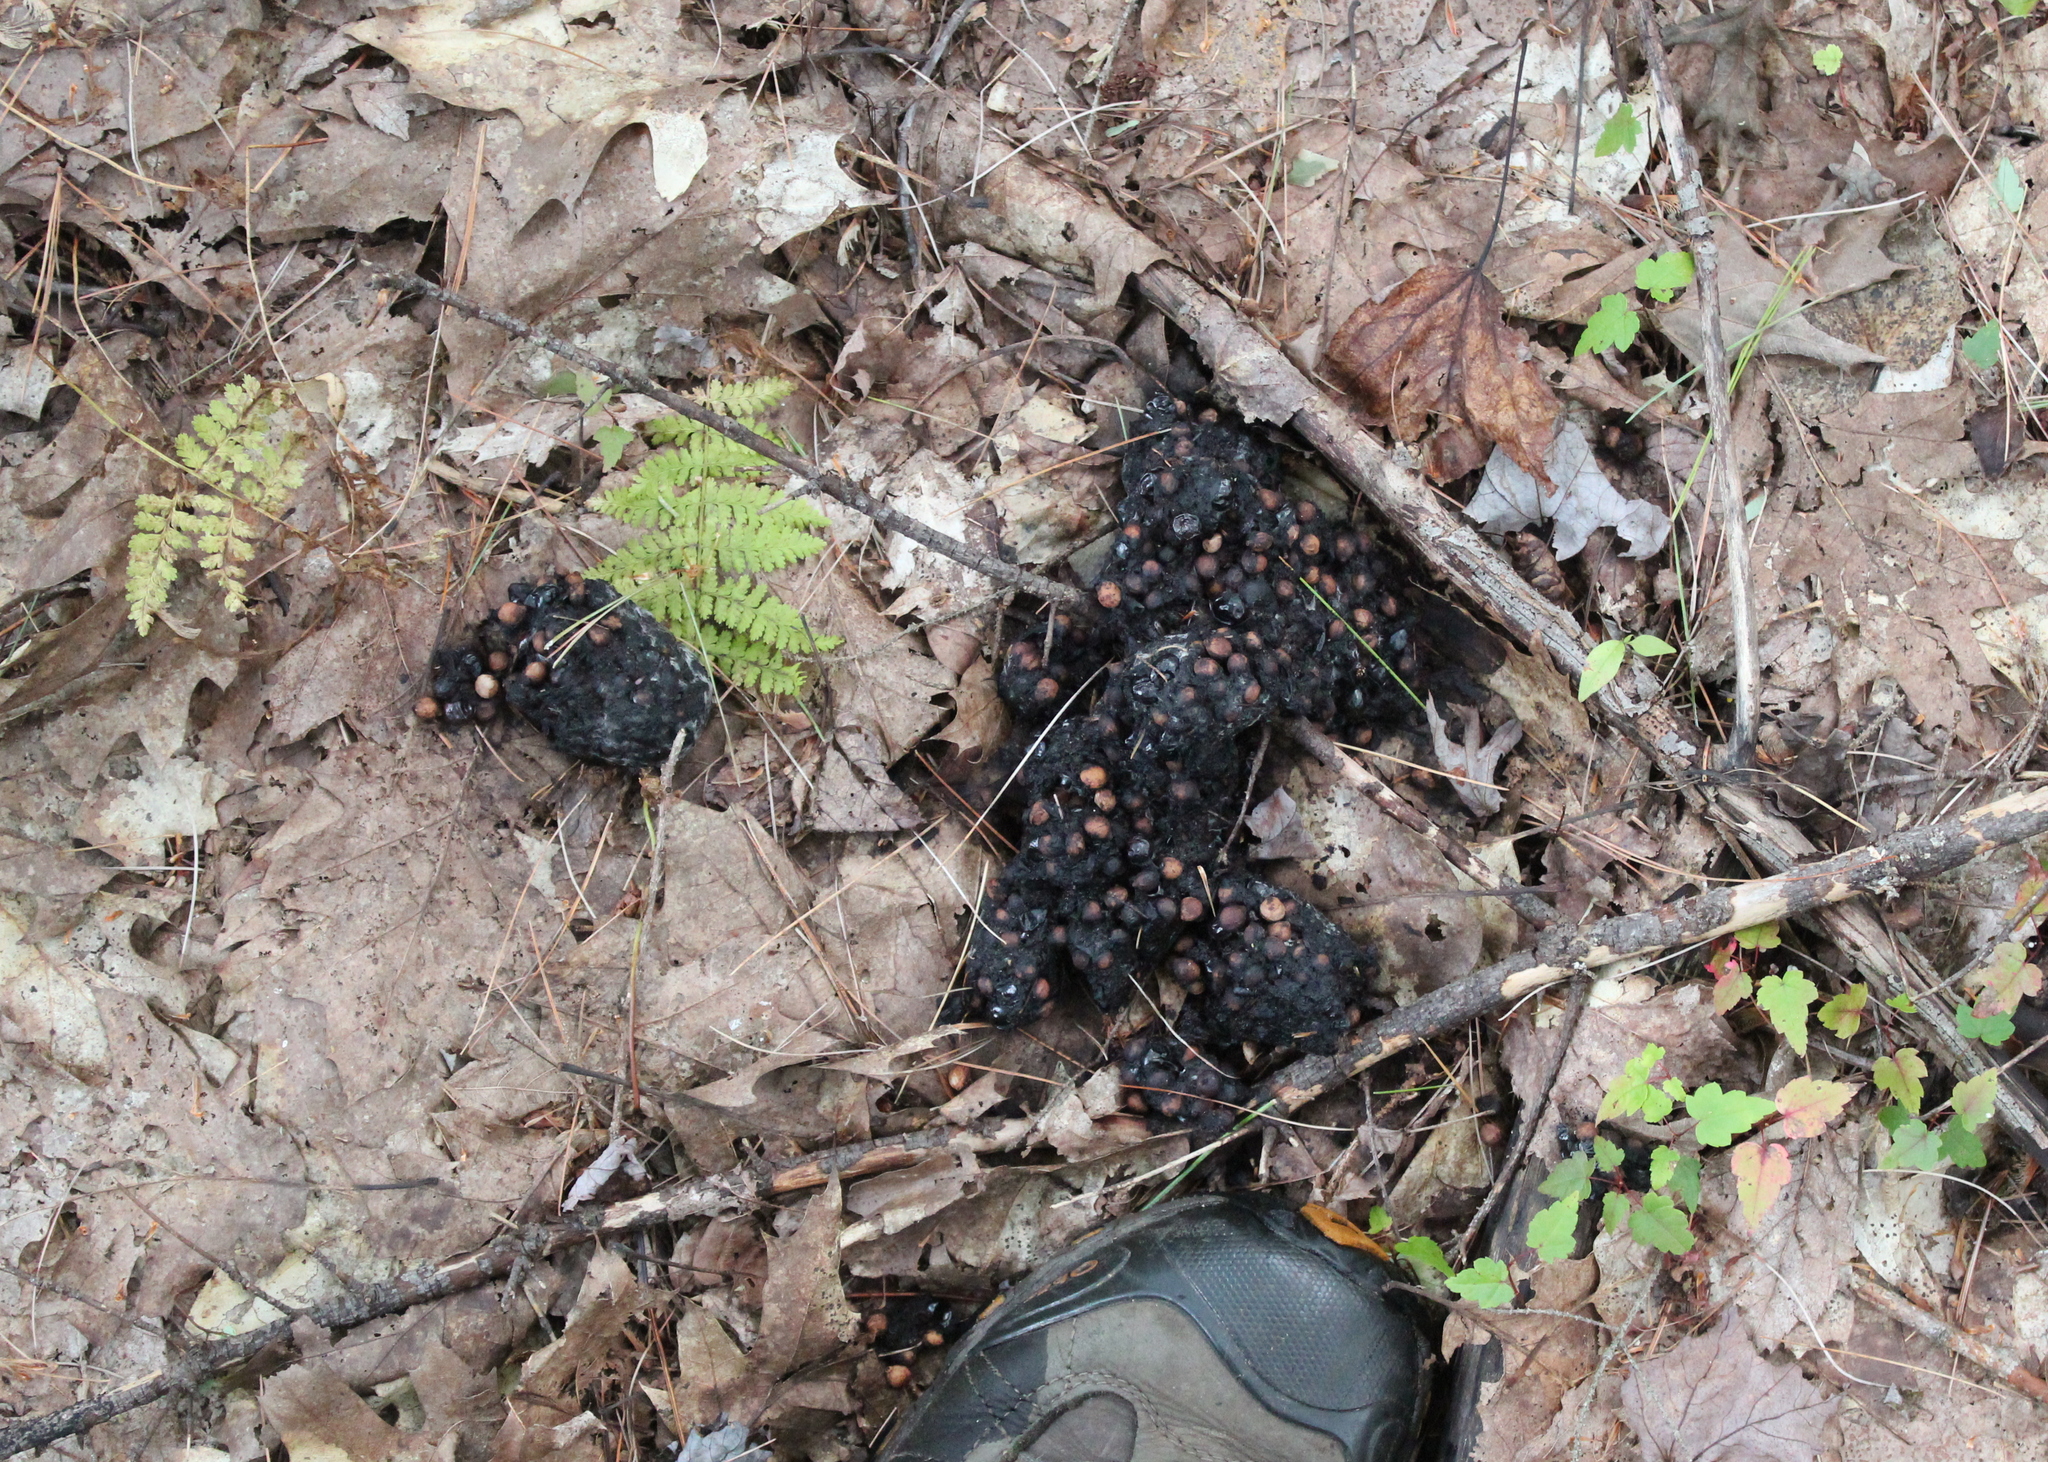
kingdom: Animalia
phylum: Chordata
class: Mammalia
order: Carnivora
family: Ursidae
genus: Ursus
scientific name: Ursus americanus
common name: American black bear
